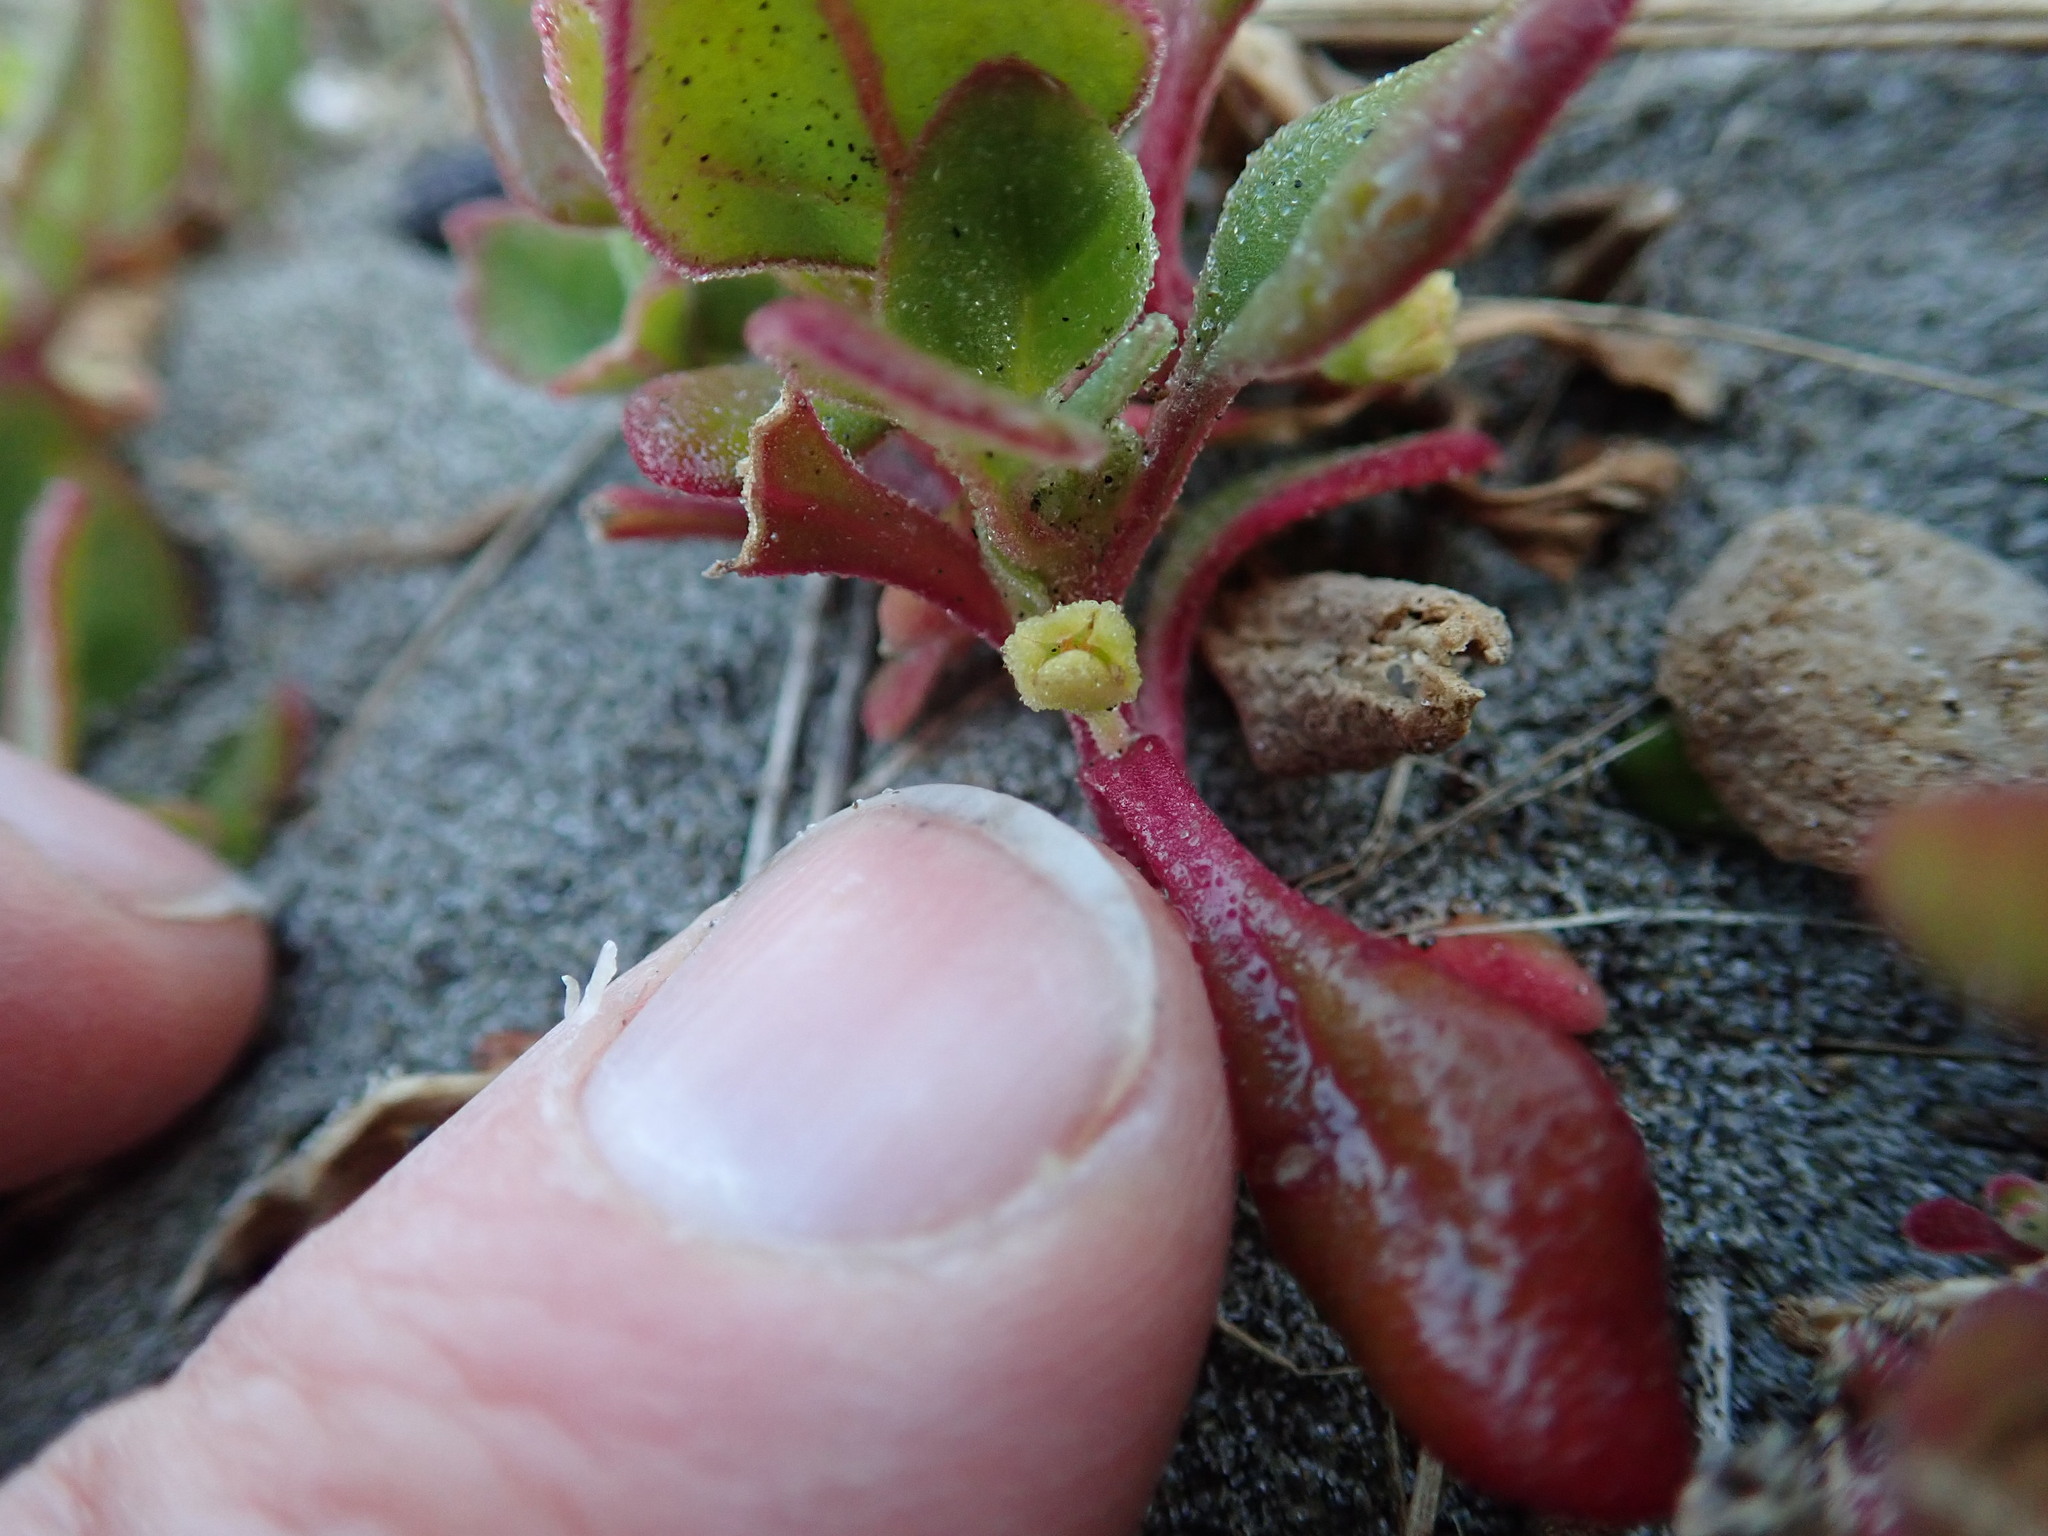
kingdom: Plantae
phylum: Tracheophyta
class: Magnoliopsida
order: Caryophyllales
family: Aizoaceae
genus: Tetragonia
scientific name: Tetragonia implexicoma
